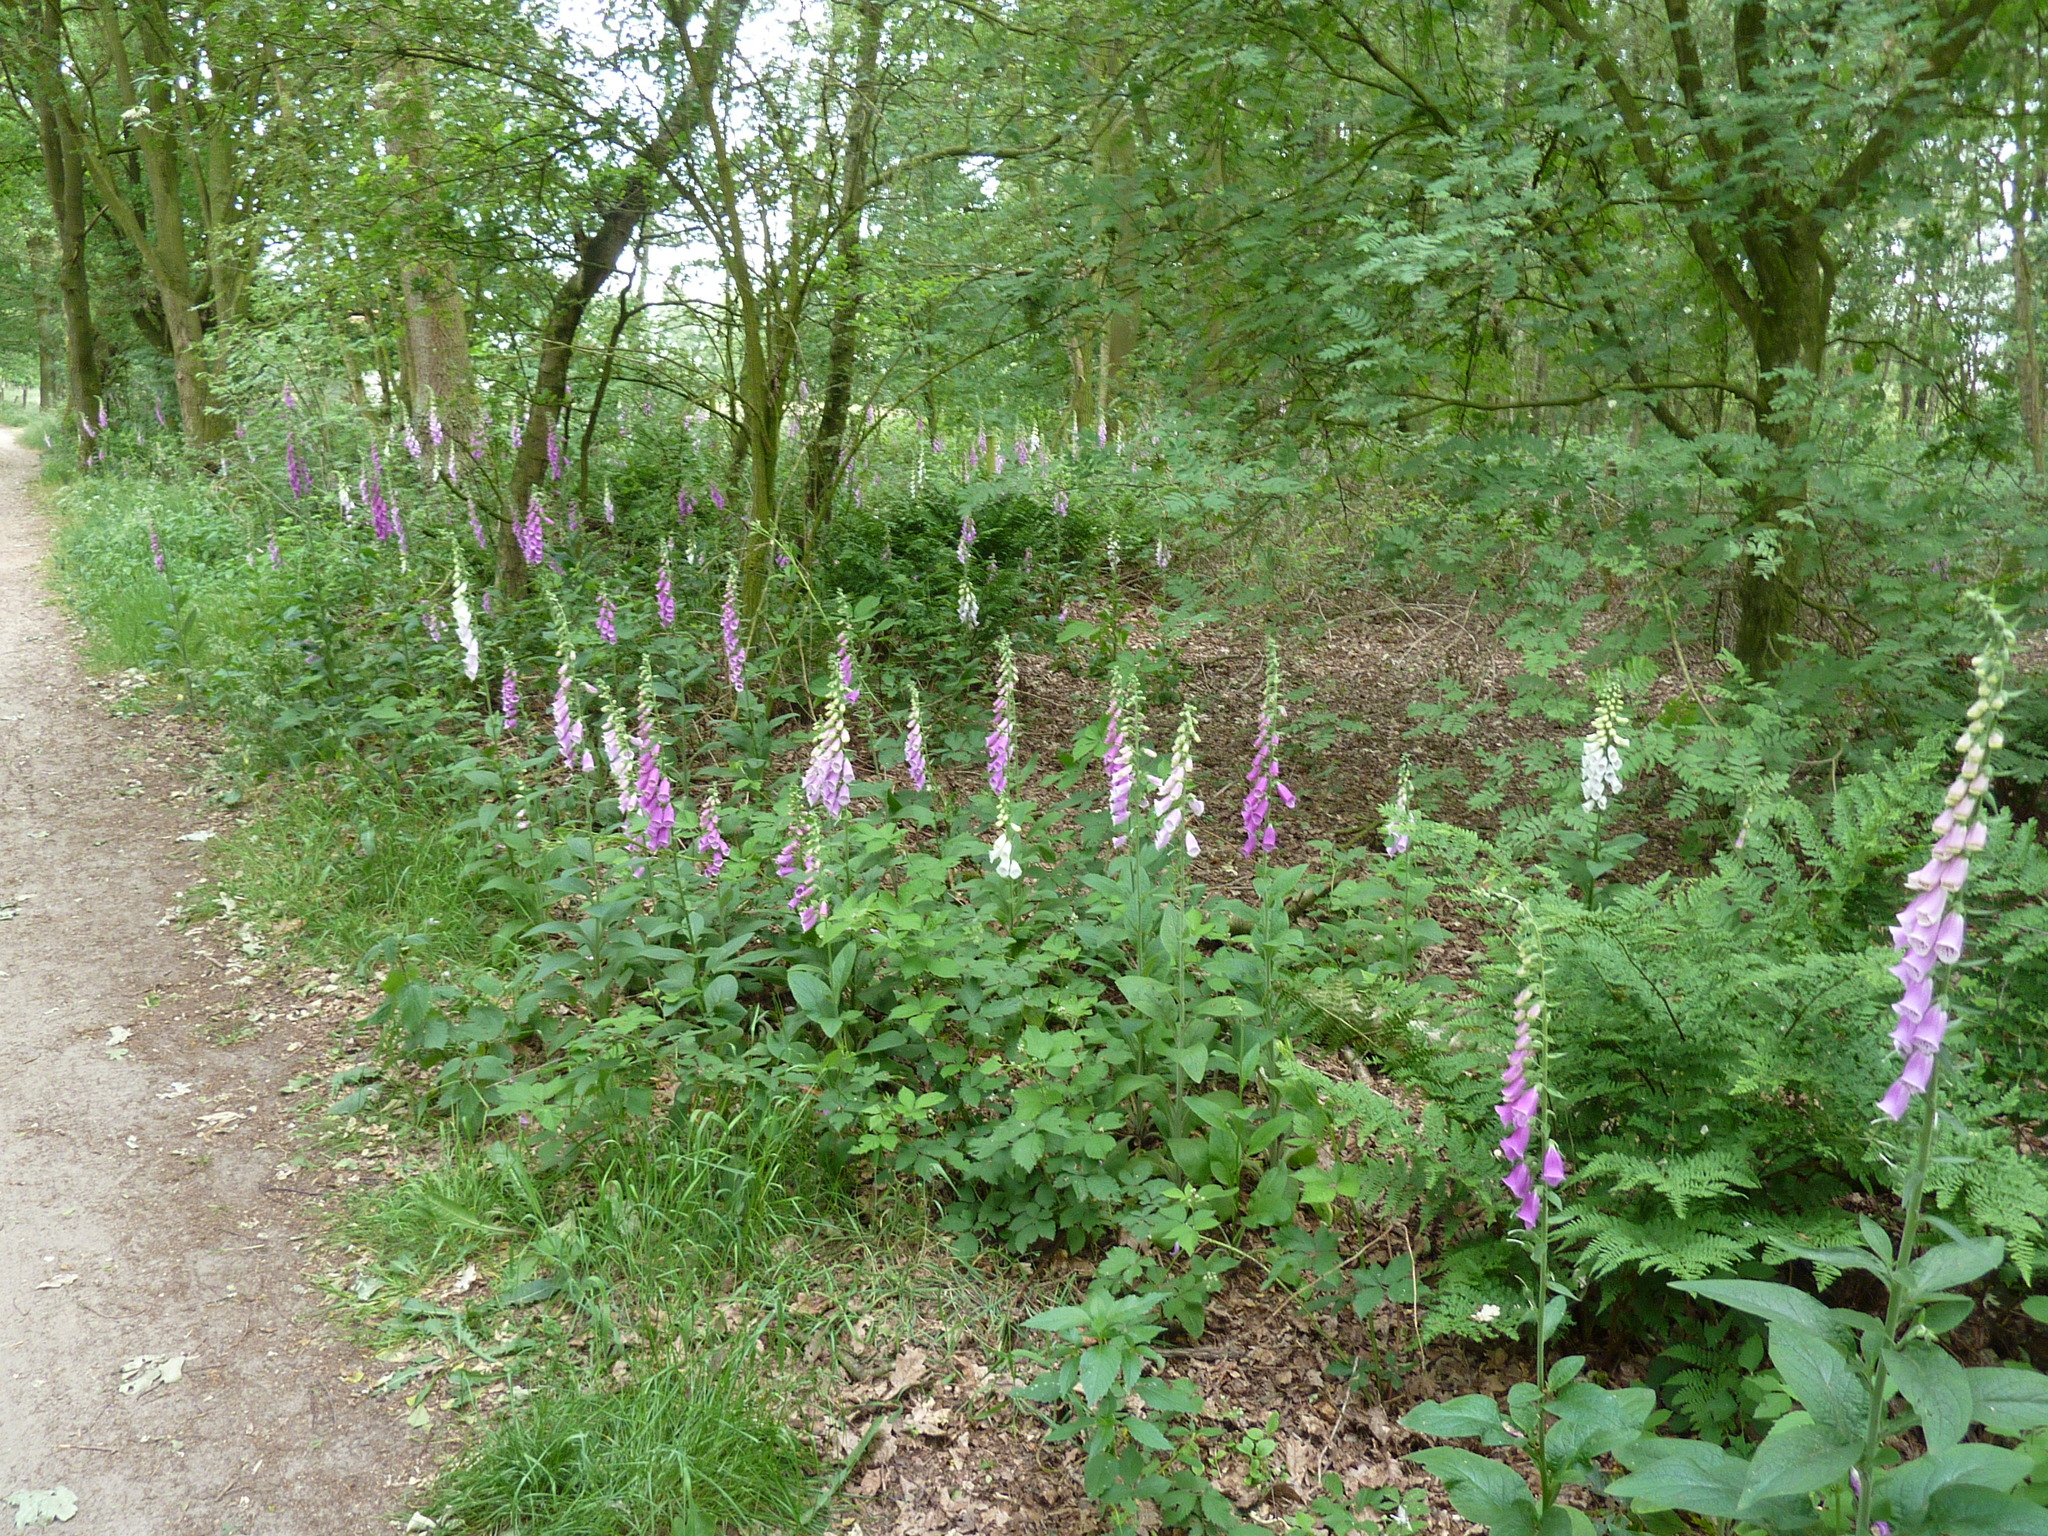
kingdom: Plantae
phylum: Tracheophyta
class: Magnoliopsida
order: Lamiales
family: Plantaginaceae
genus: Digitalis
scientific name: Digitalis purpurea
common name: Foxglove
